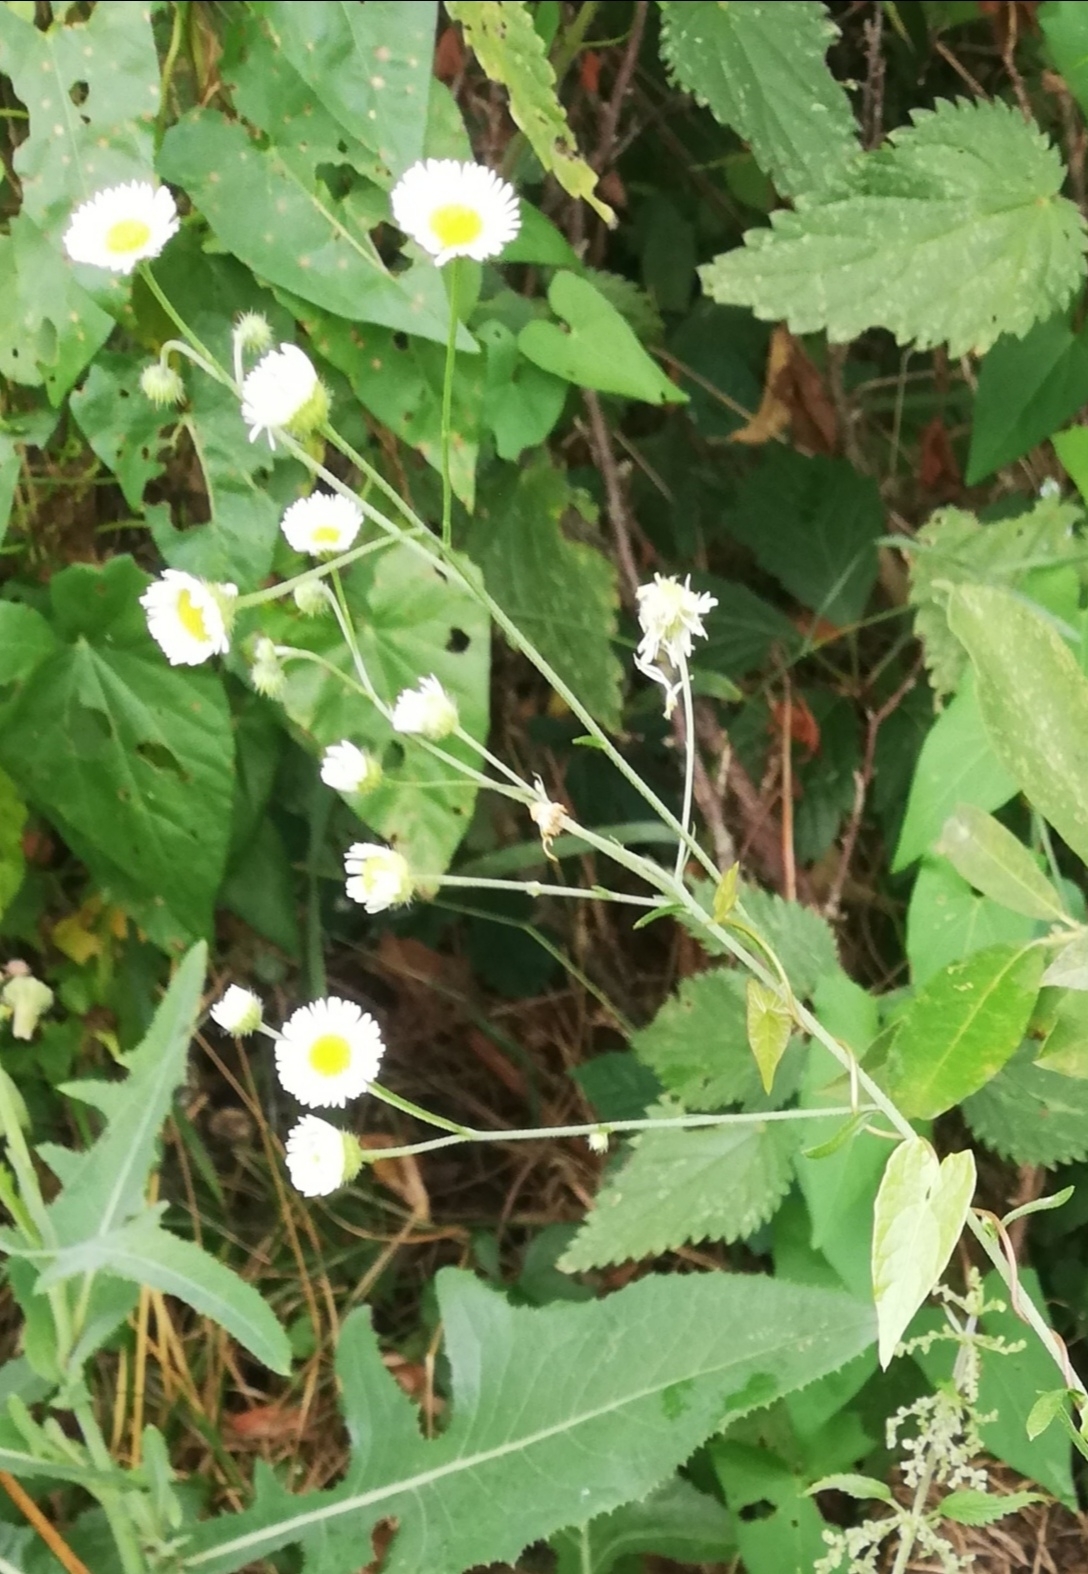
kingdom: Plantae
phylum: Tracheophyta
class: Magnoliopsida
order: Asterales
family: Asteraceae
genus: Erigeron
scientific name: Erigeron annuus
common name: Tall fleabane
